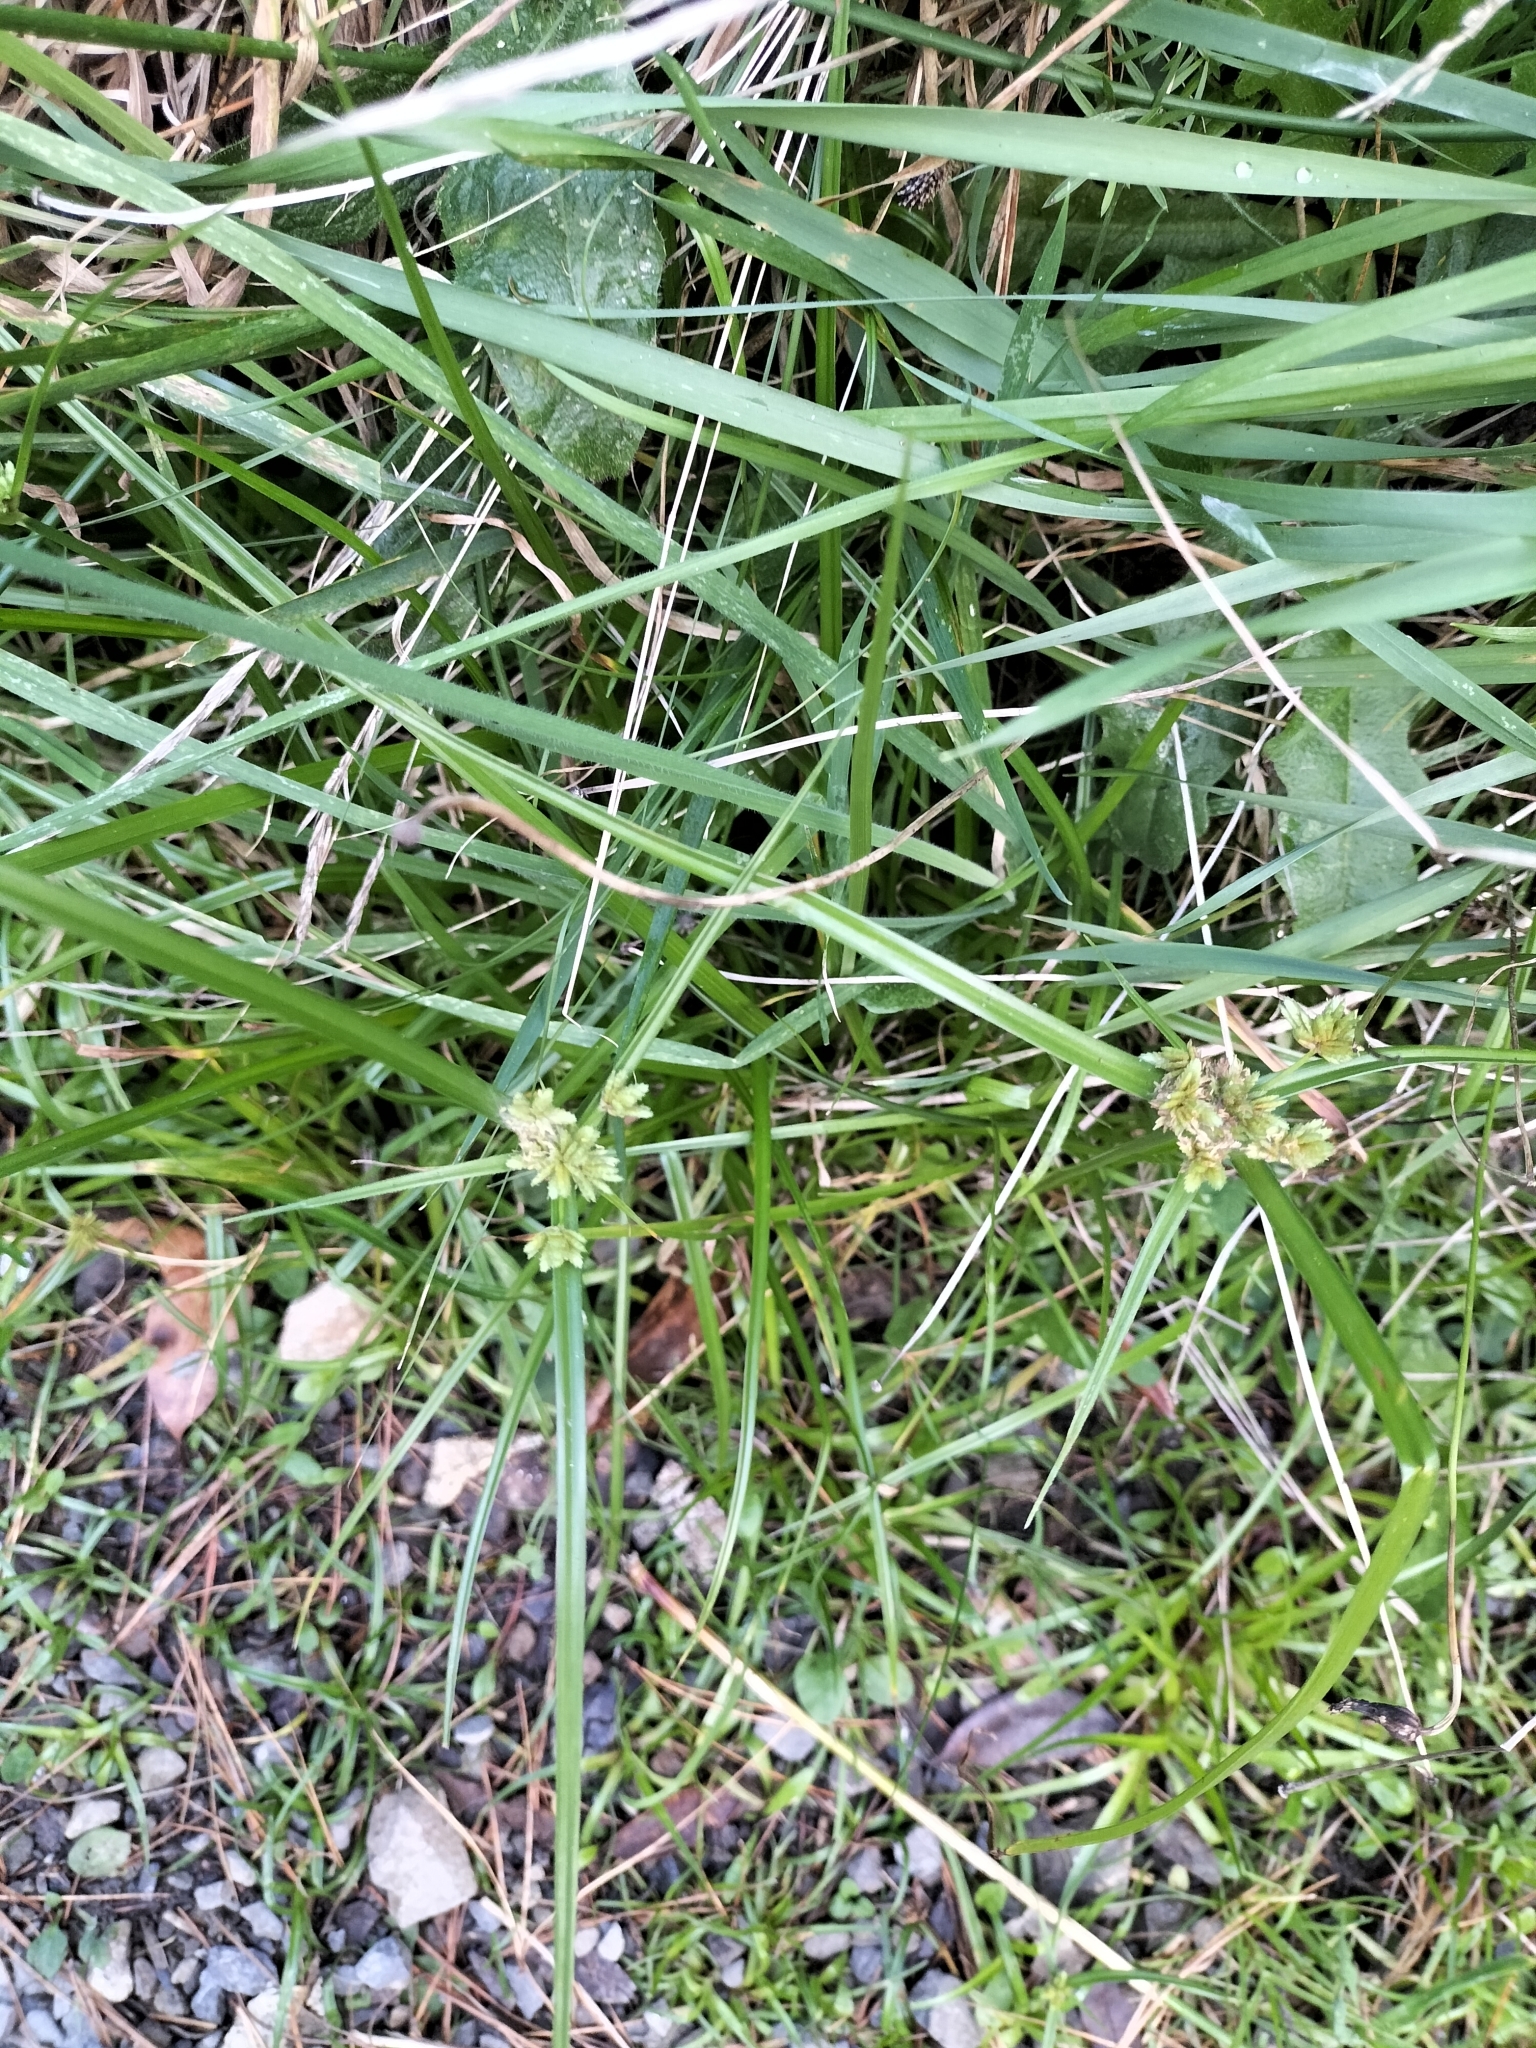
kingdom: Plantae
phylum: Tracheophyta
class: Liliopsida
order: Poales
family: Cyperaceae
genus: Cyperus
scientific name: Cyperus eragrostis
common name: Tall flatsedge
